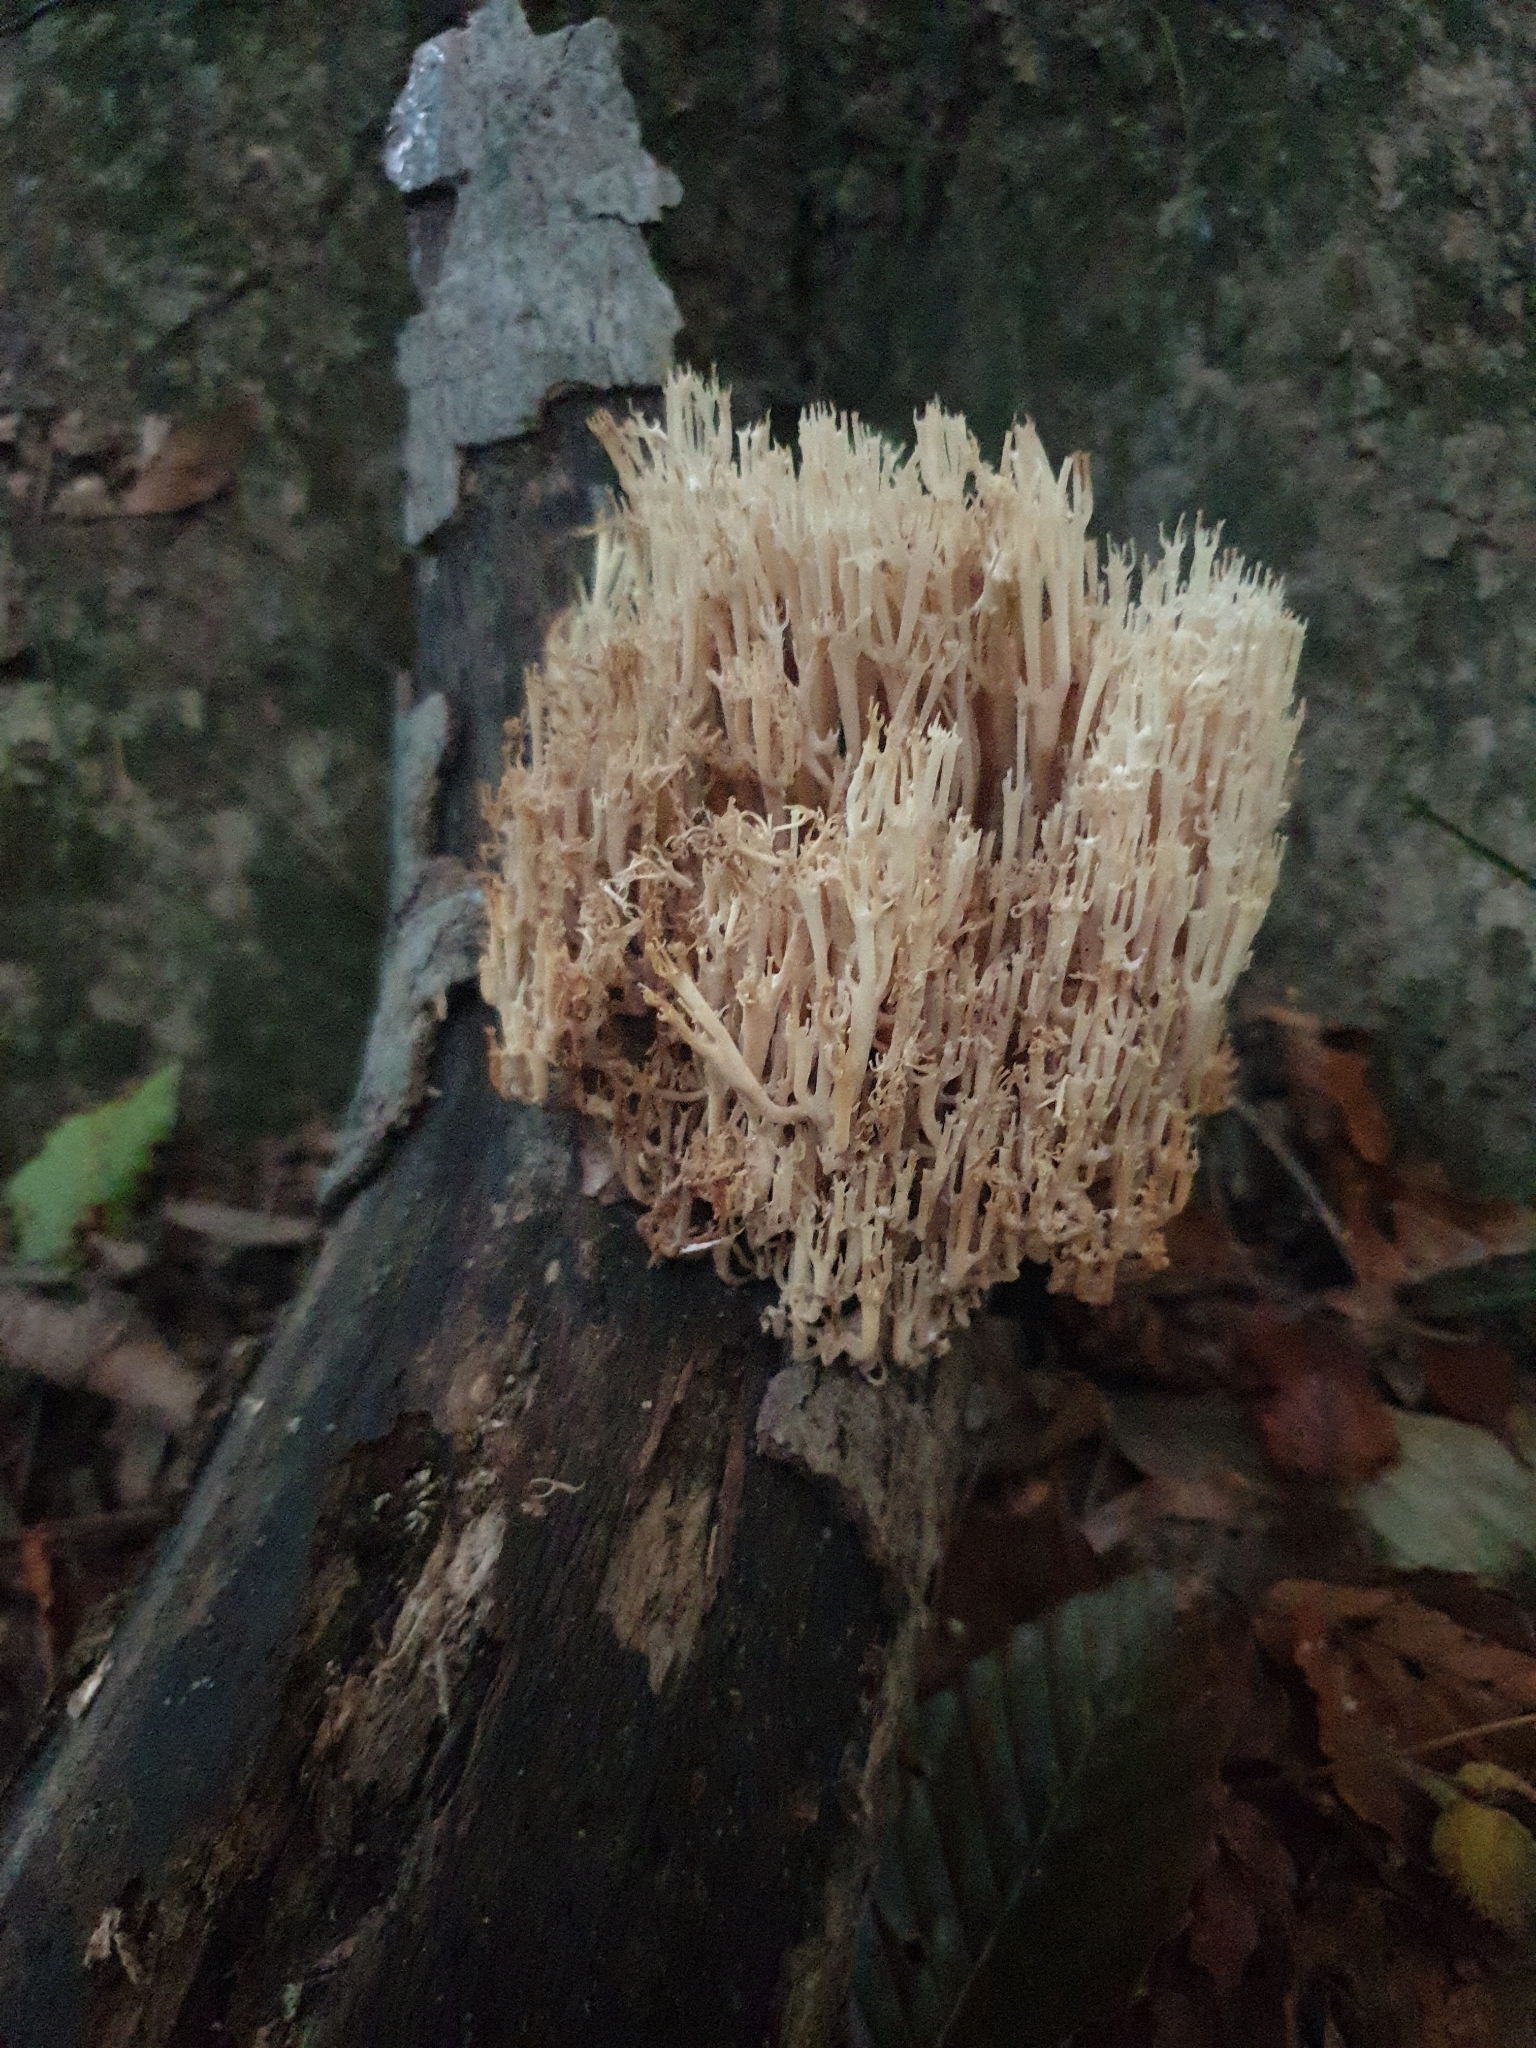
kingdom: Fungi
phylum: Basidiomycota
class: Agaricomycetes
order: Russulales
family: Auriscalpiaceae
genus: Artomyces
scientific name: Artomyces pyxidatus
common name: Crown-tipped coral fungus
